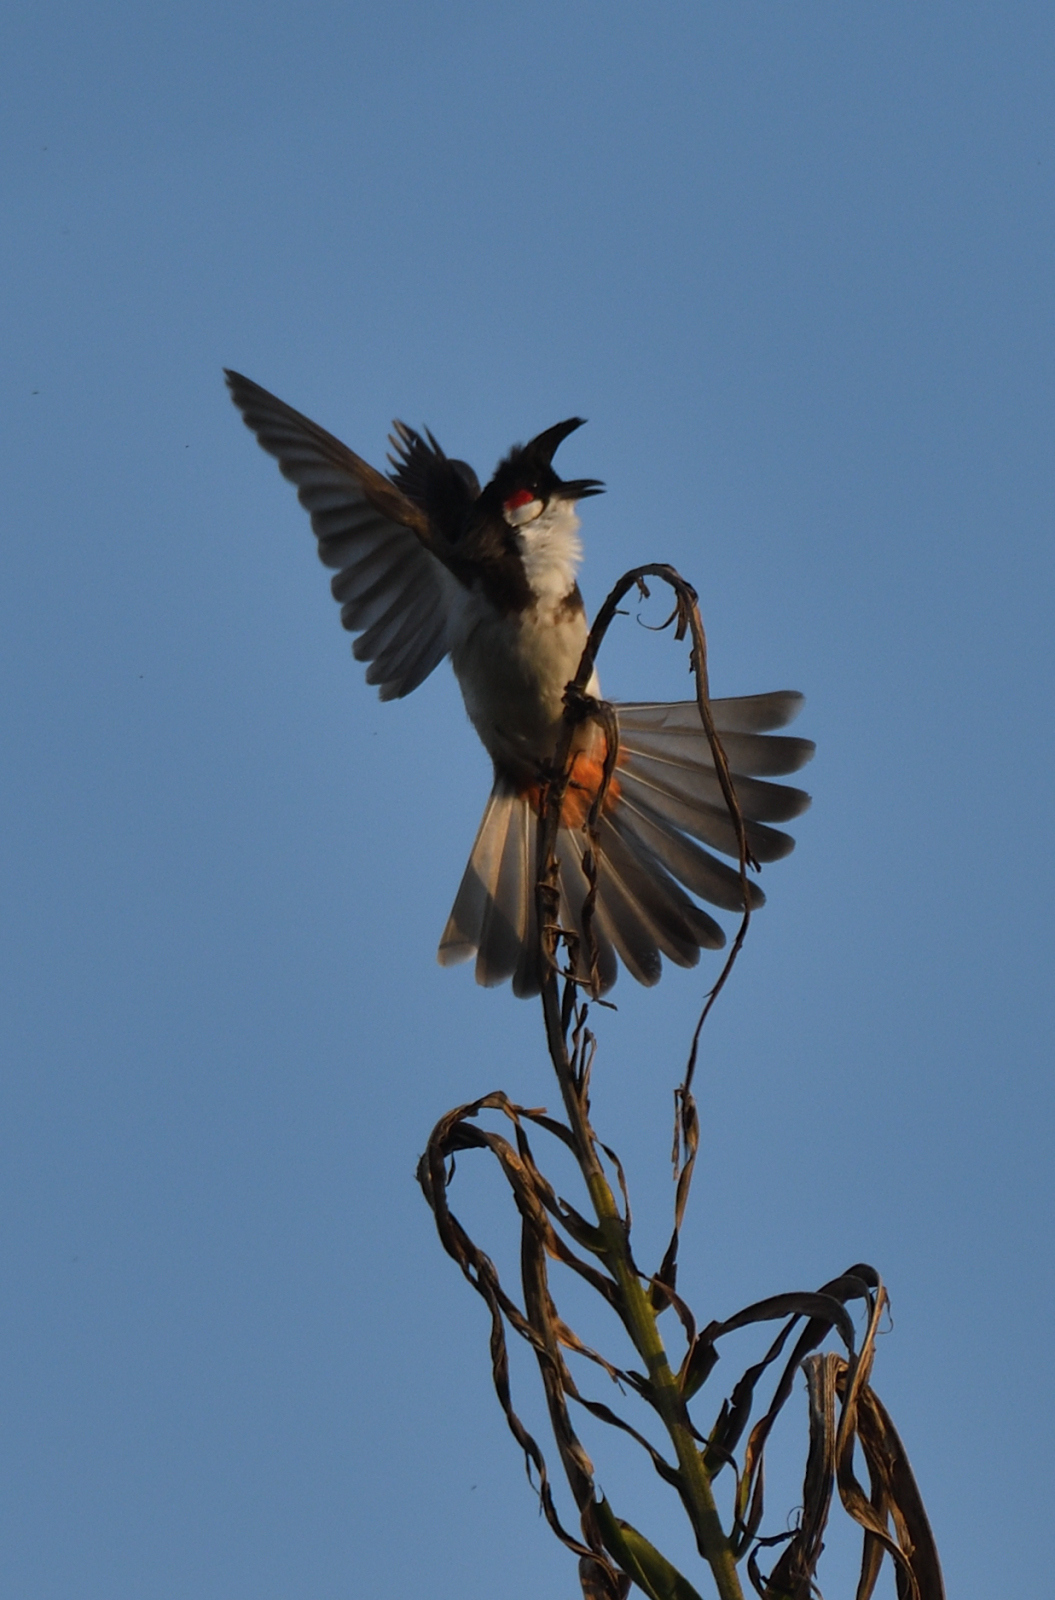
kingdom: Animalia
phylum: Chordata
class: Aves
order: Passeriformes
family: Pycnonotidae
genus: Pycnonotus
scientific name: Pycnonotus jocosus
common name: Red-whiskered bulbul
